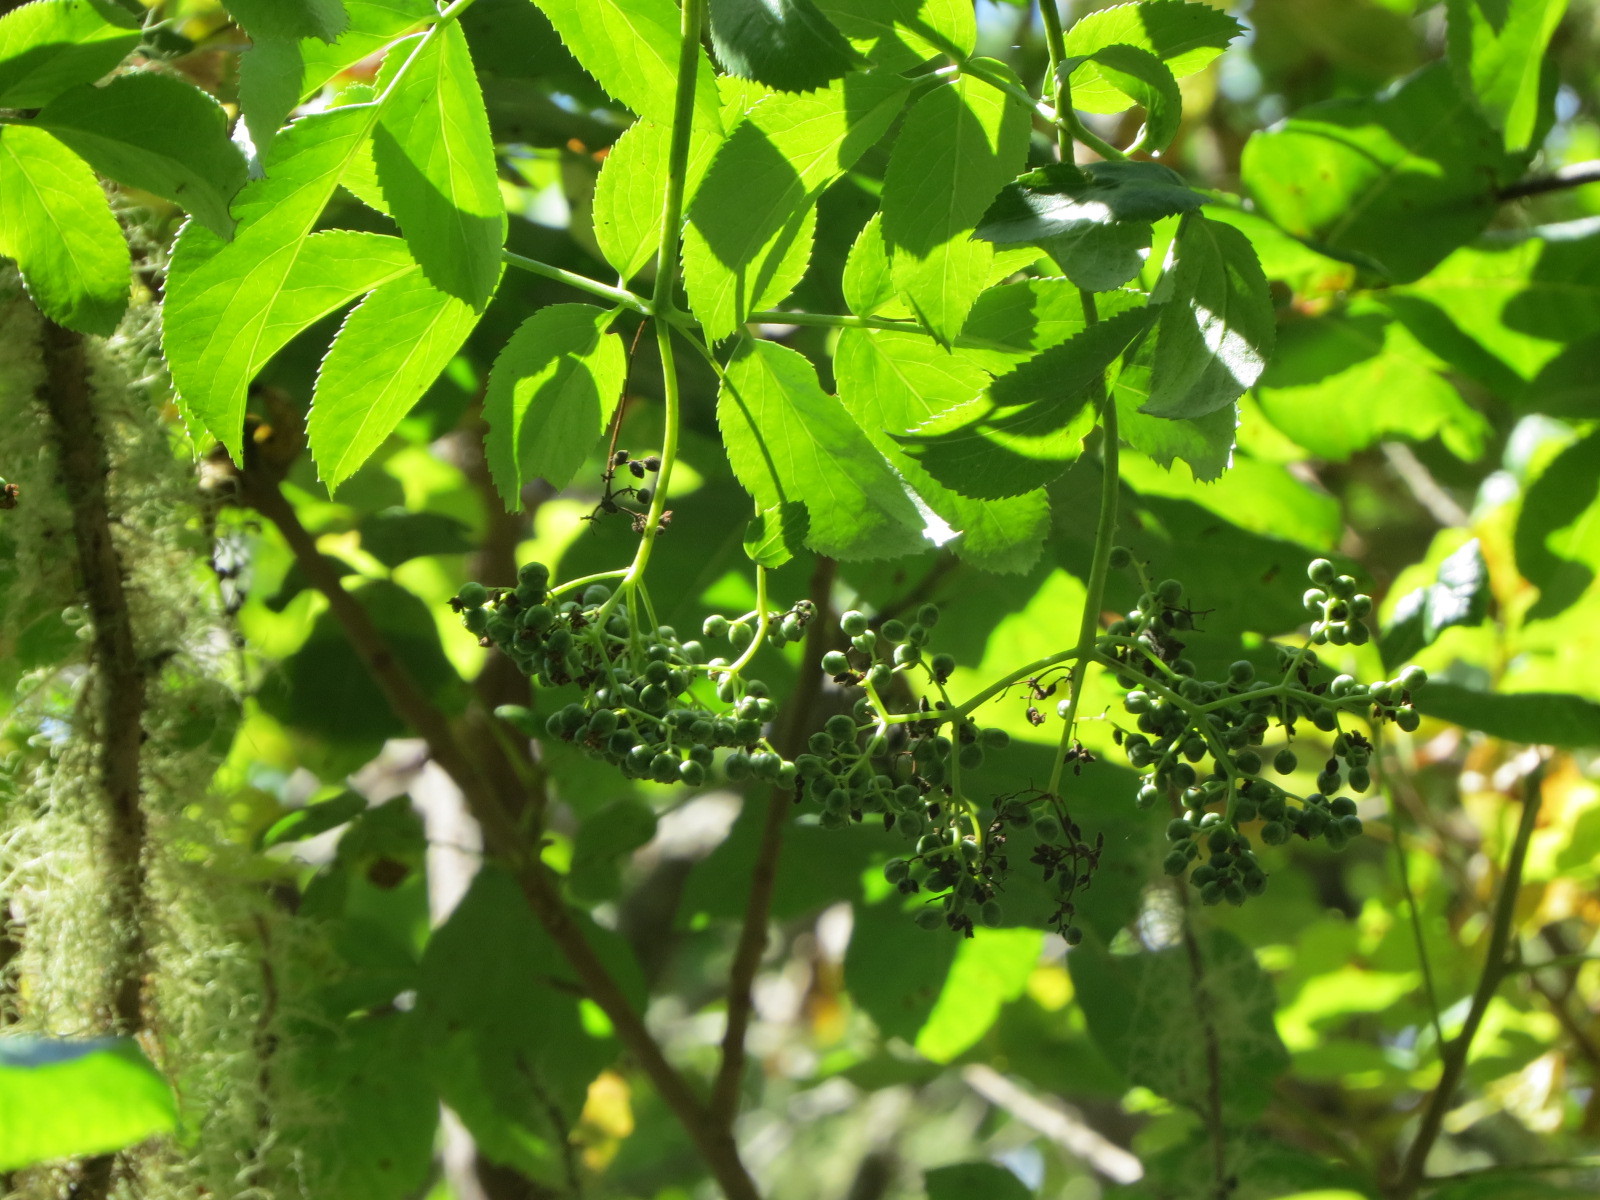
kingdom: Plantae
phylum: Tracheophyta
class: Magnoliopsida
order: Dipsacales
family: Viburnaceae
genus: Sambucus
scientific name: Sambucus cerulea
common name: Blue elder
